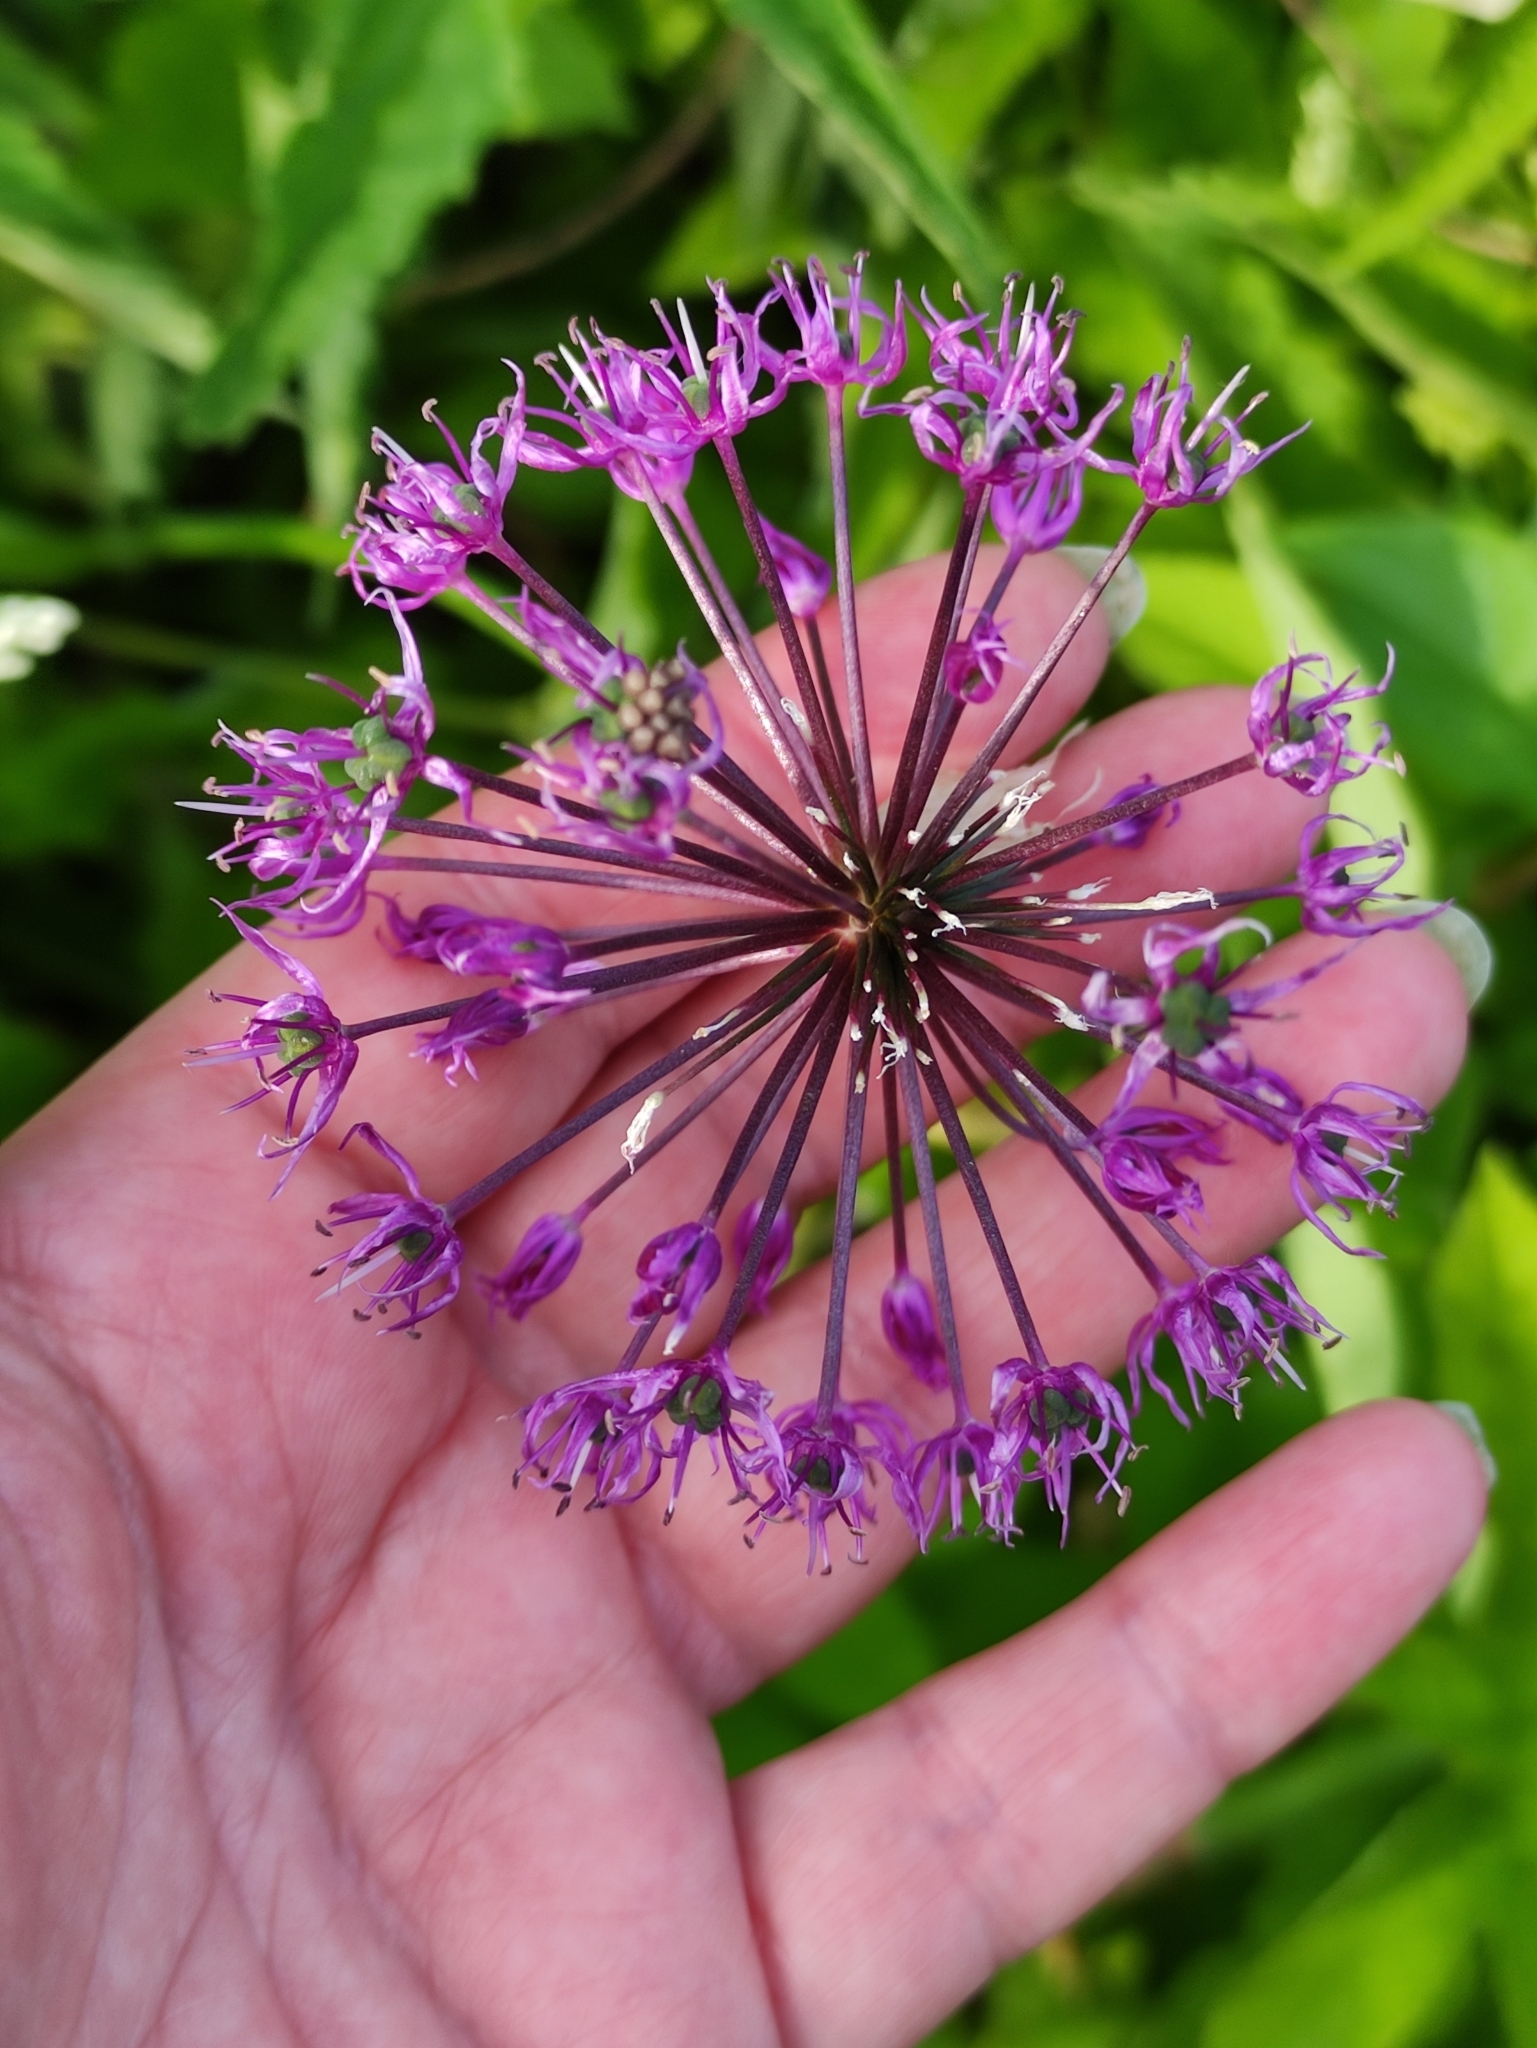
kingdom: Plantae
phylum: Tracheophyta
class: Liliopsida
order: Asparagales
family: Amaryllidaceae
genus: Allium
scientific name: Allium rosenorum
